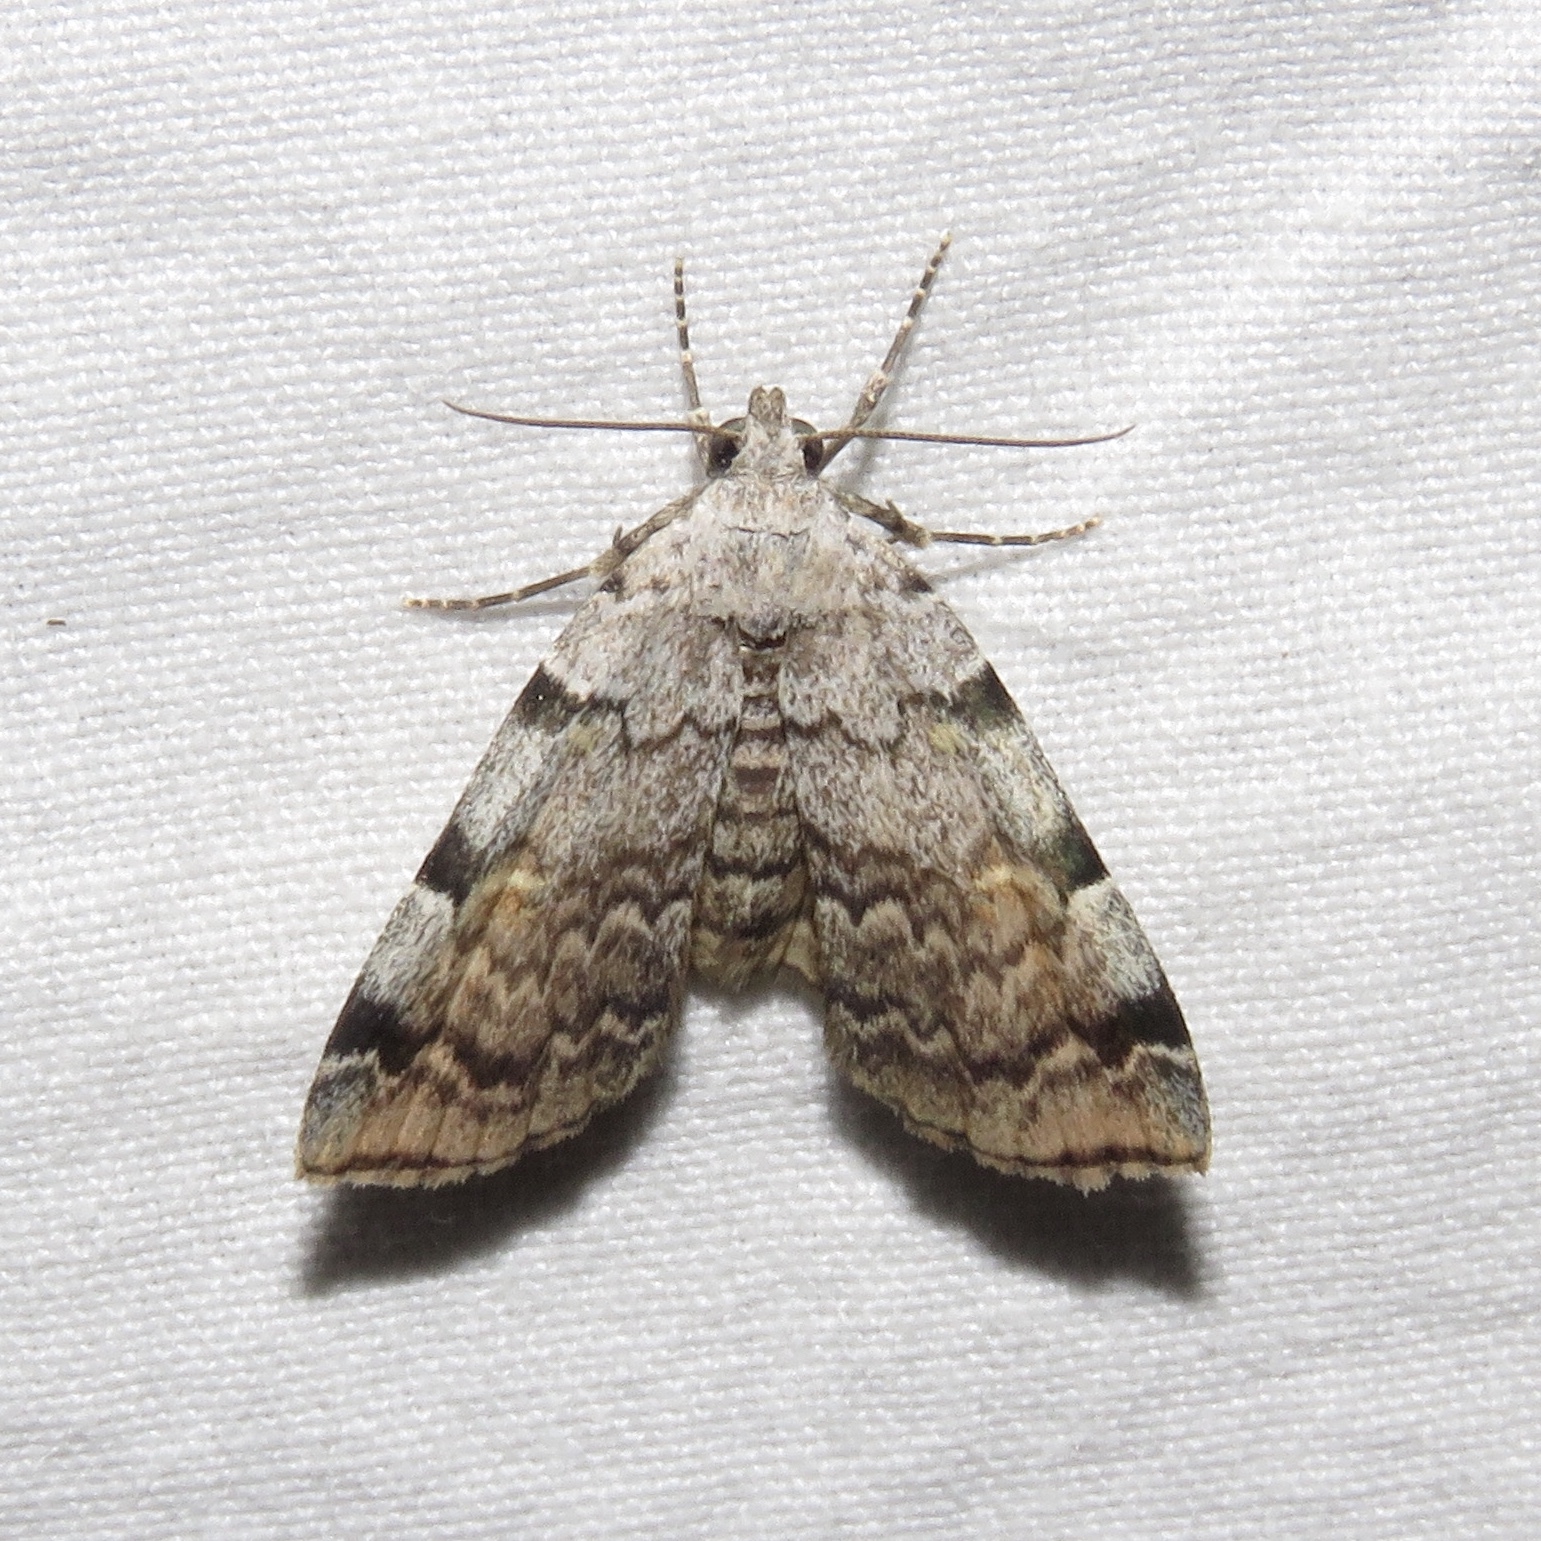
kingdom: Animalia
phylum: Arthropoda
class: Insecta
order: Lepidoptera
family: Erebidae
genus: Idia
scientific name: Idia americalis
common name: American idia moth
